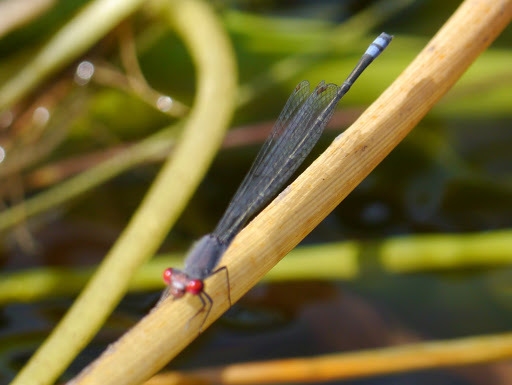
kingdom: Animalia
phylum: Arthropoda
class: Insecta
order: Odonata
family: Coenagrionidae
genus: Pseudagrion
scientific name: Pseudagrion sublacteum
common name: Cherry-eye sprite
